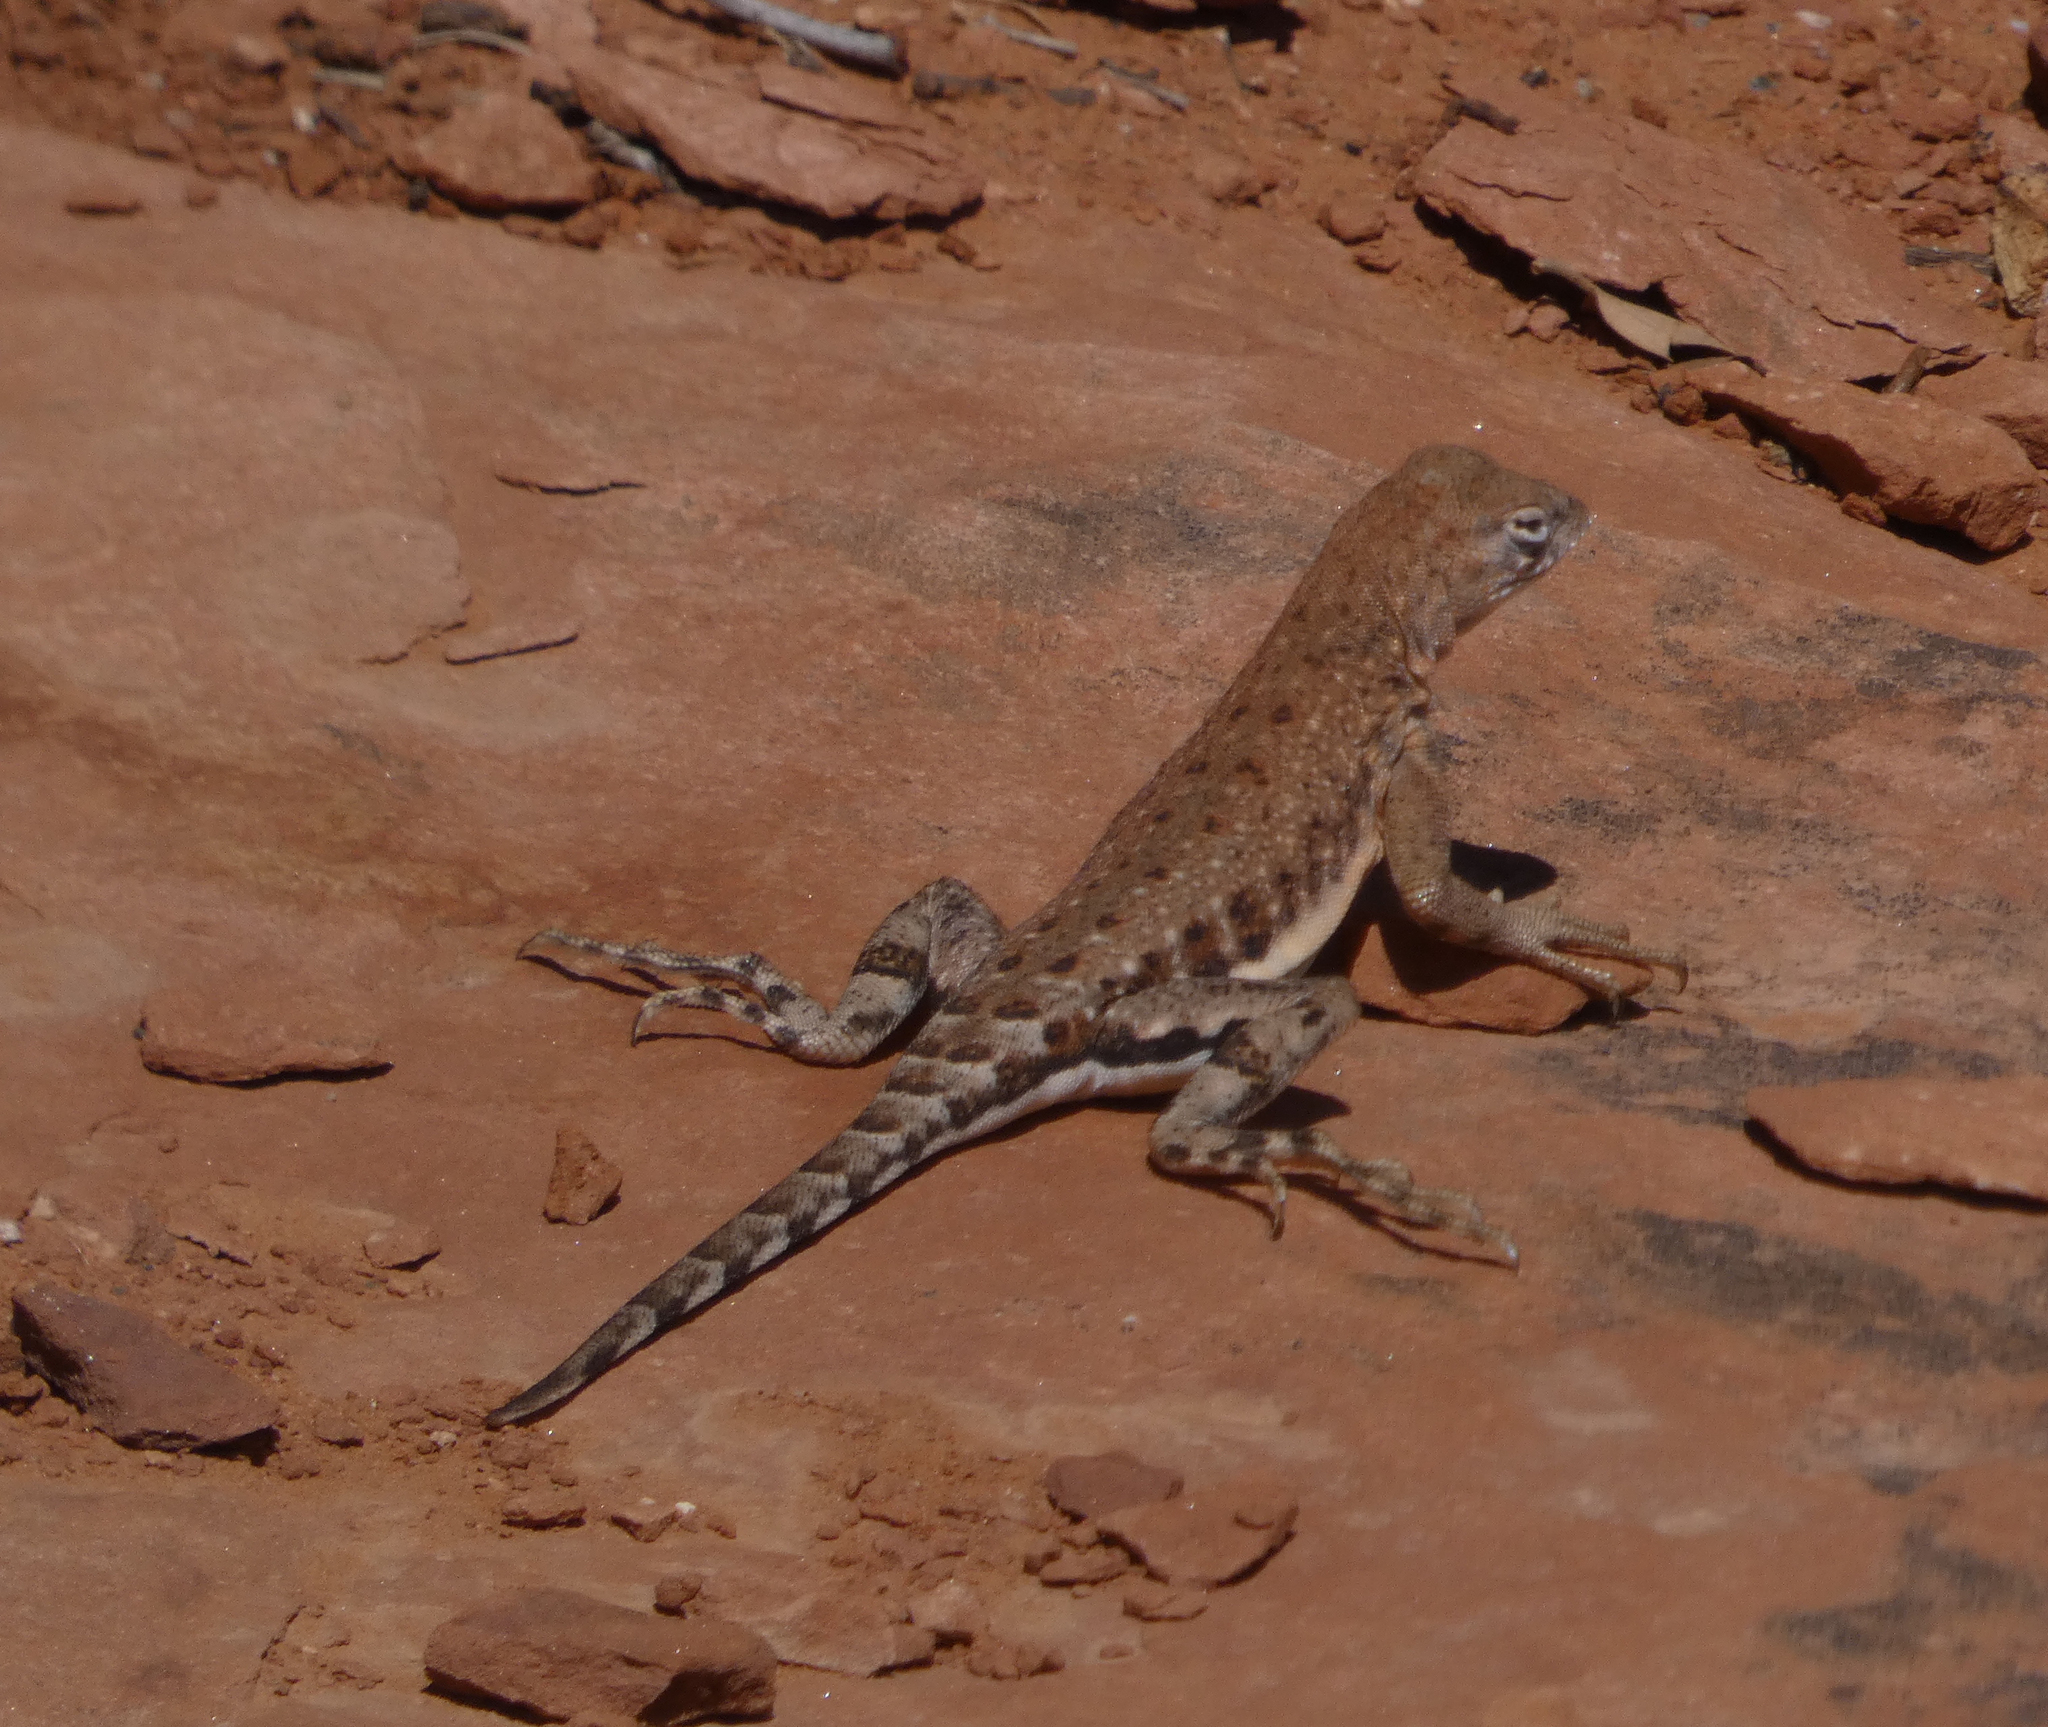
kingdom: Animalia
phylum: Chordata
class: Squamata
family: Phrynosomatidae
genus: Cophosaurus
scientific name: Cophosaurus texanus
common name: Greater earless lizard
